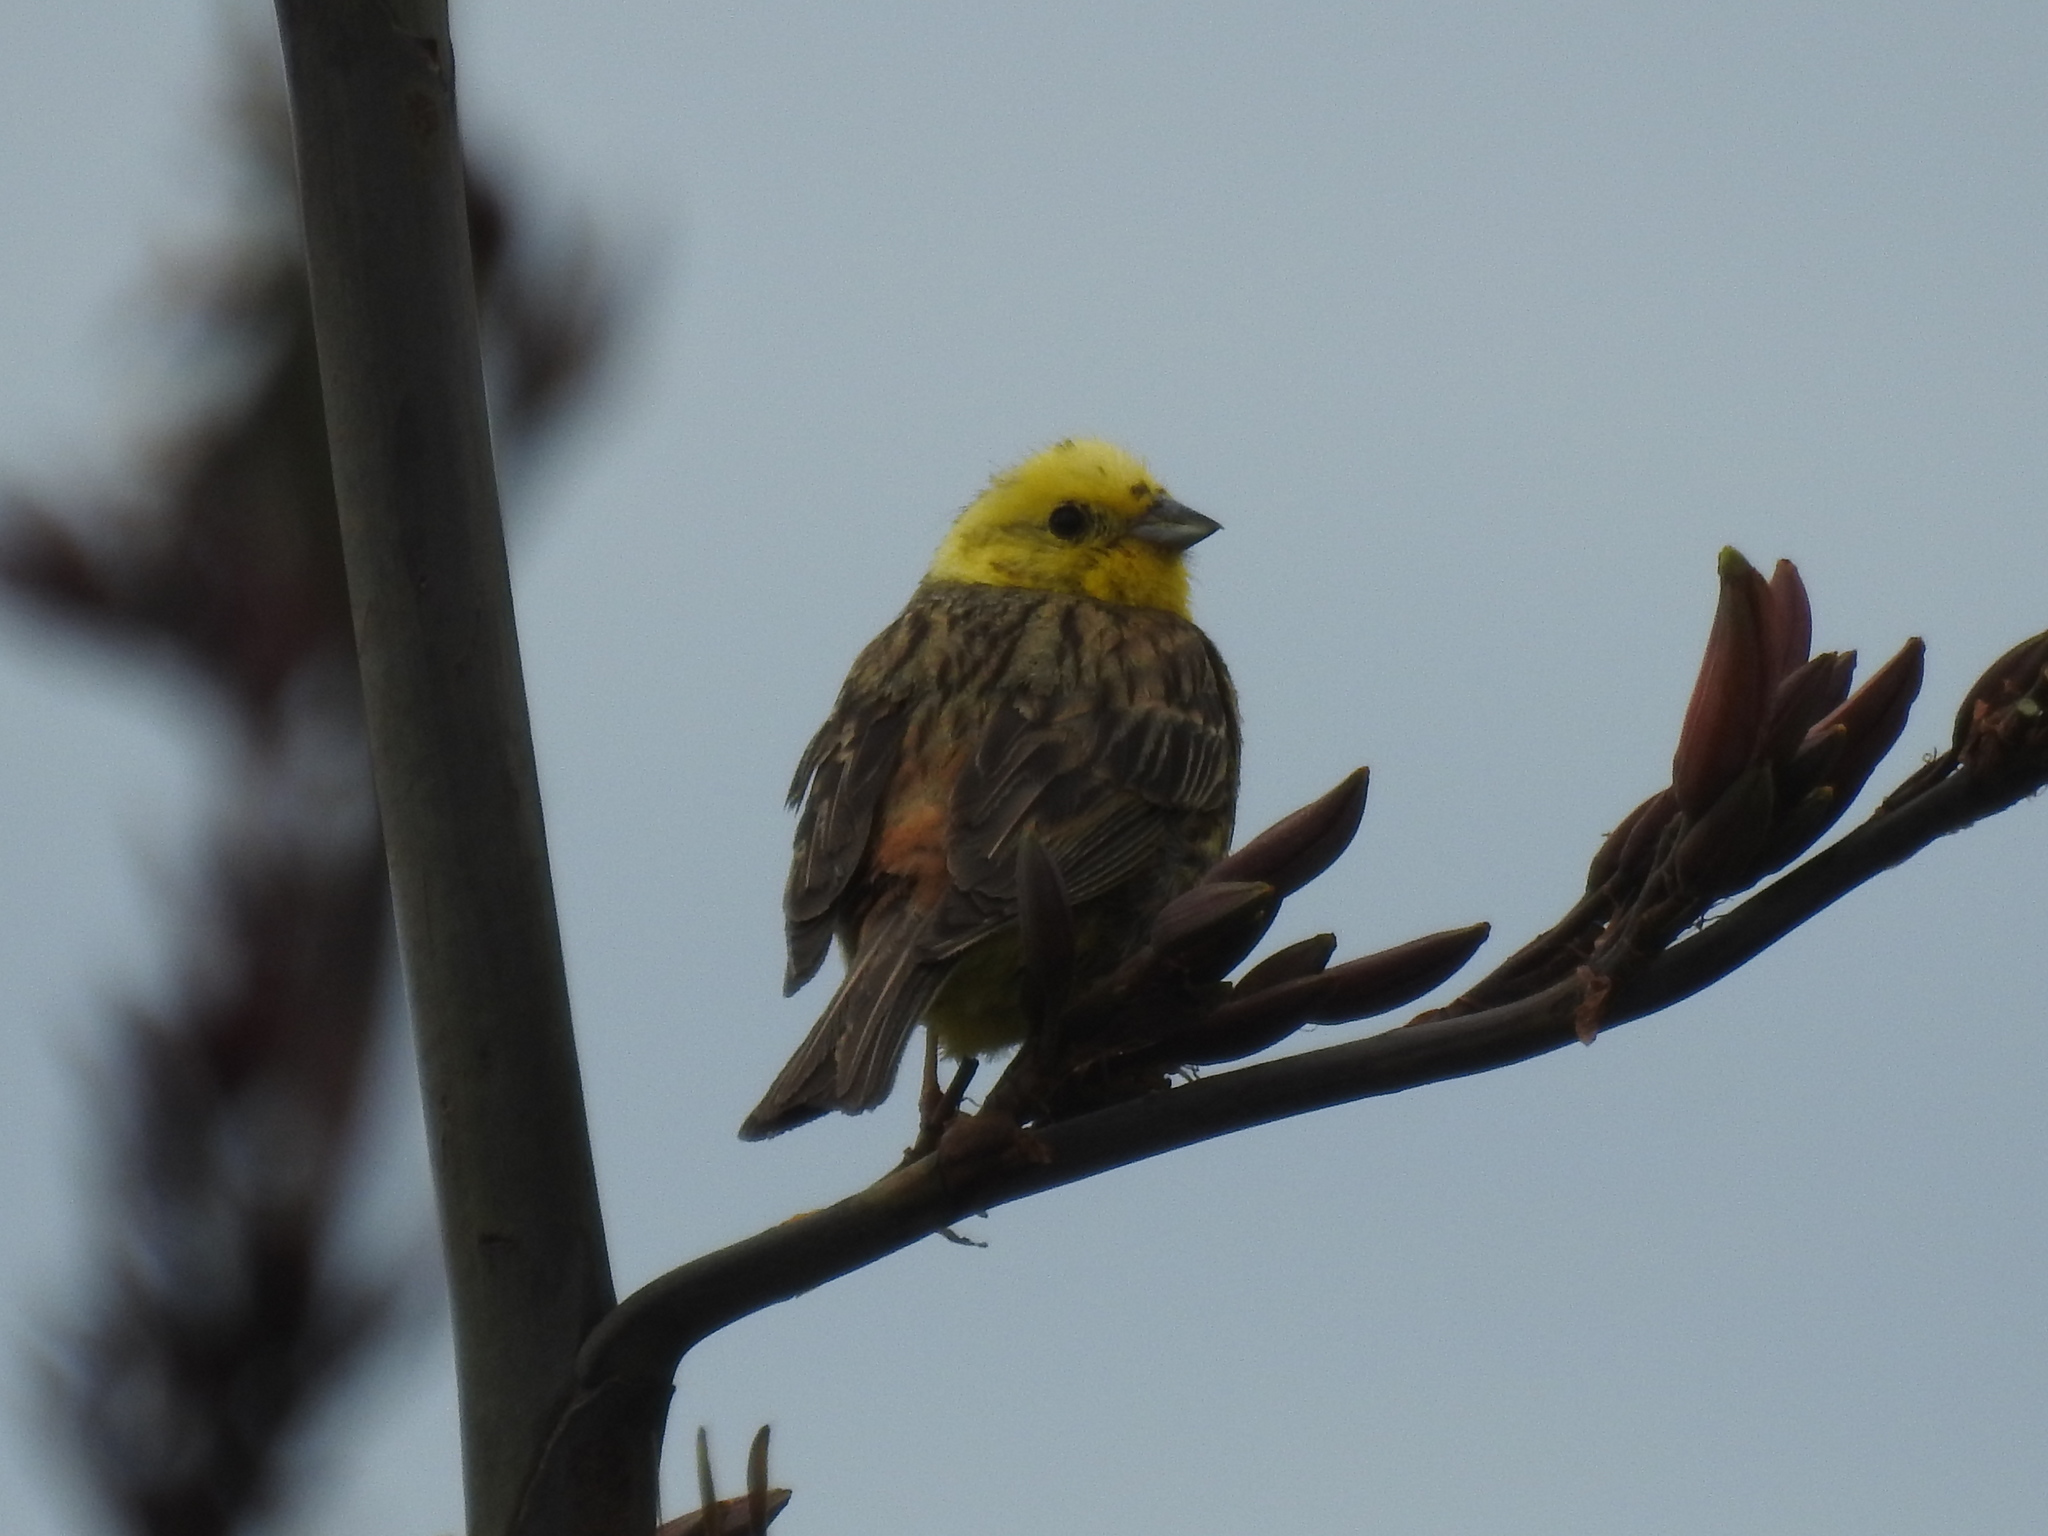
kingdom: Animalia
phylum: Chordata
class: Aves
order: Passeriformes
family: Emberizidae
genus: Emberiza
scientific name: Emberiza citrinella
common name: Yellowhammer
